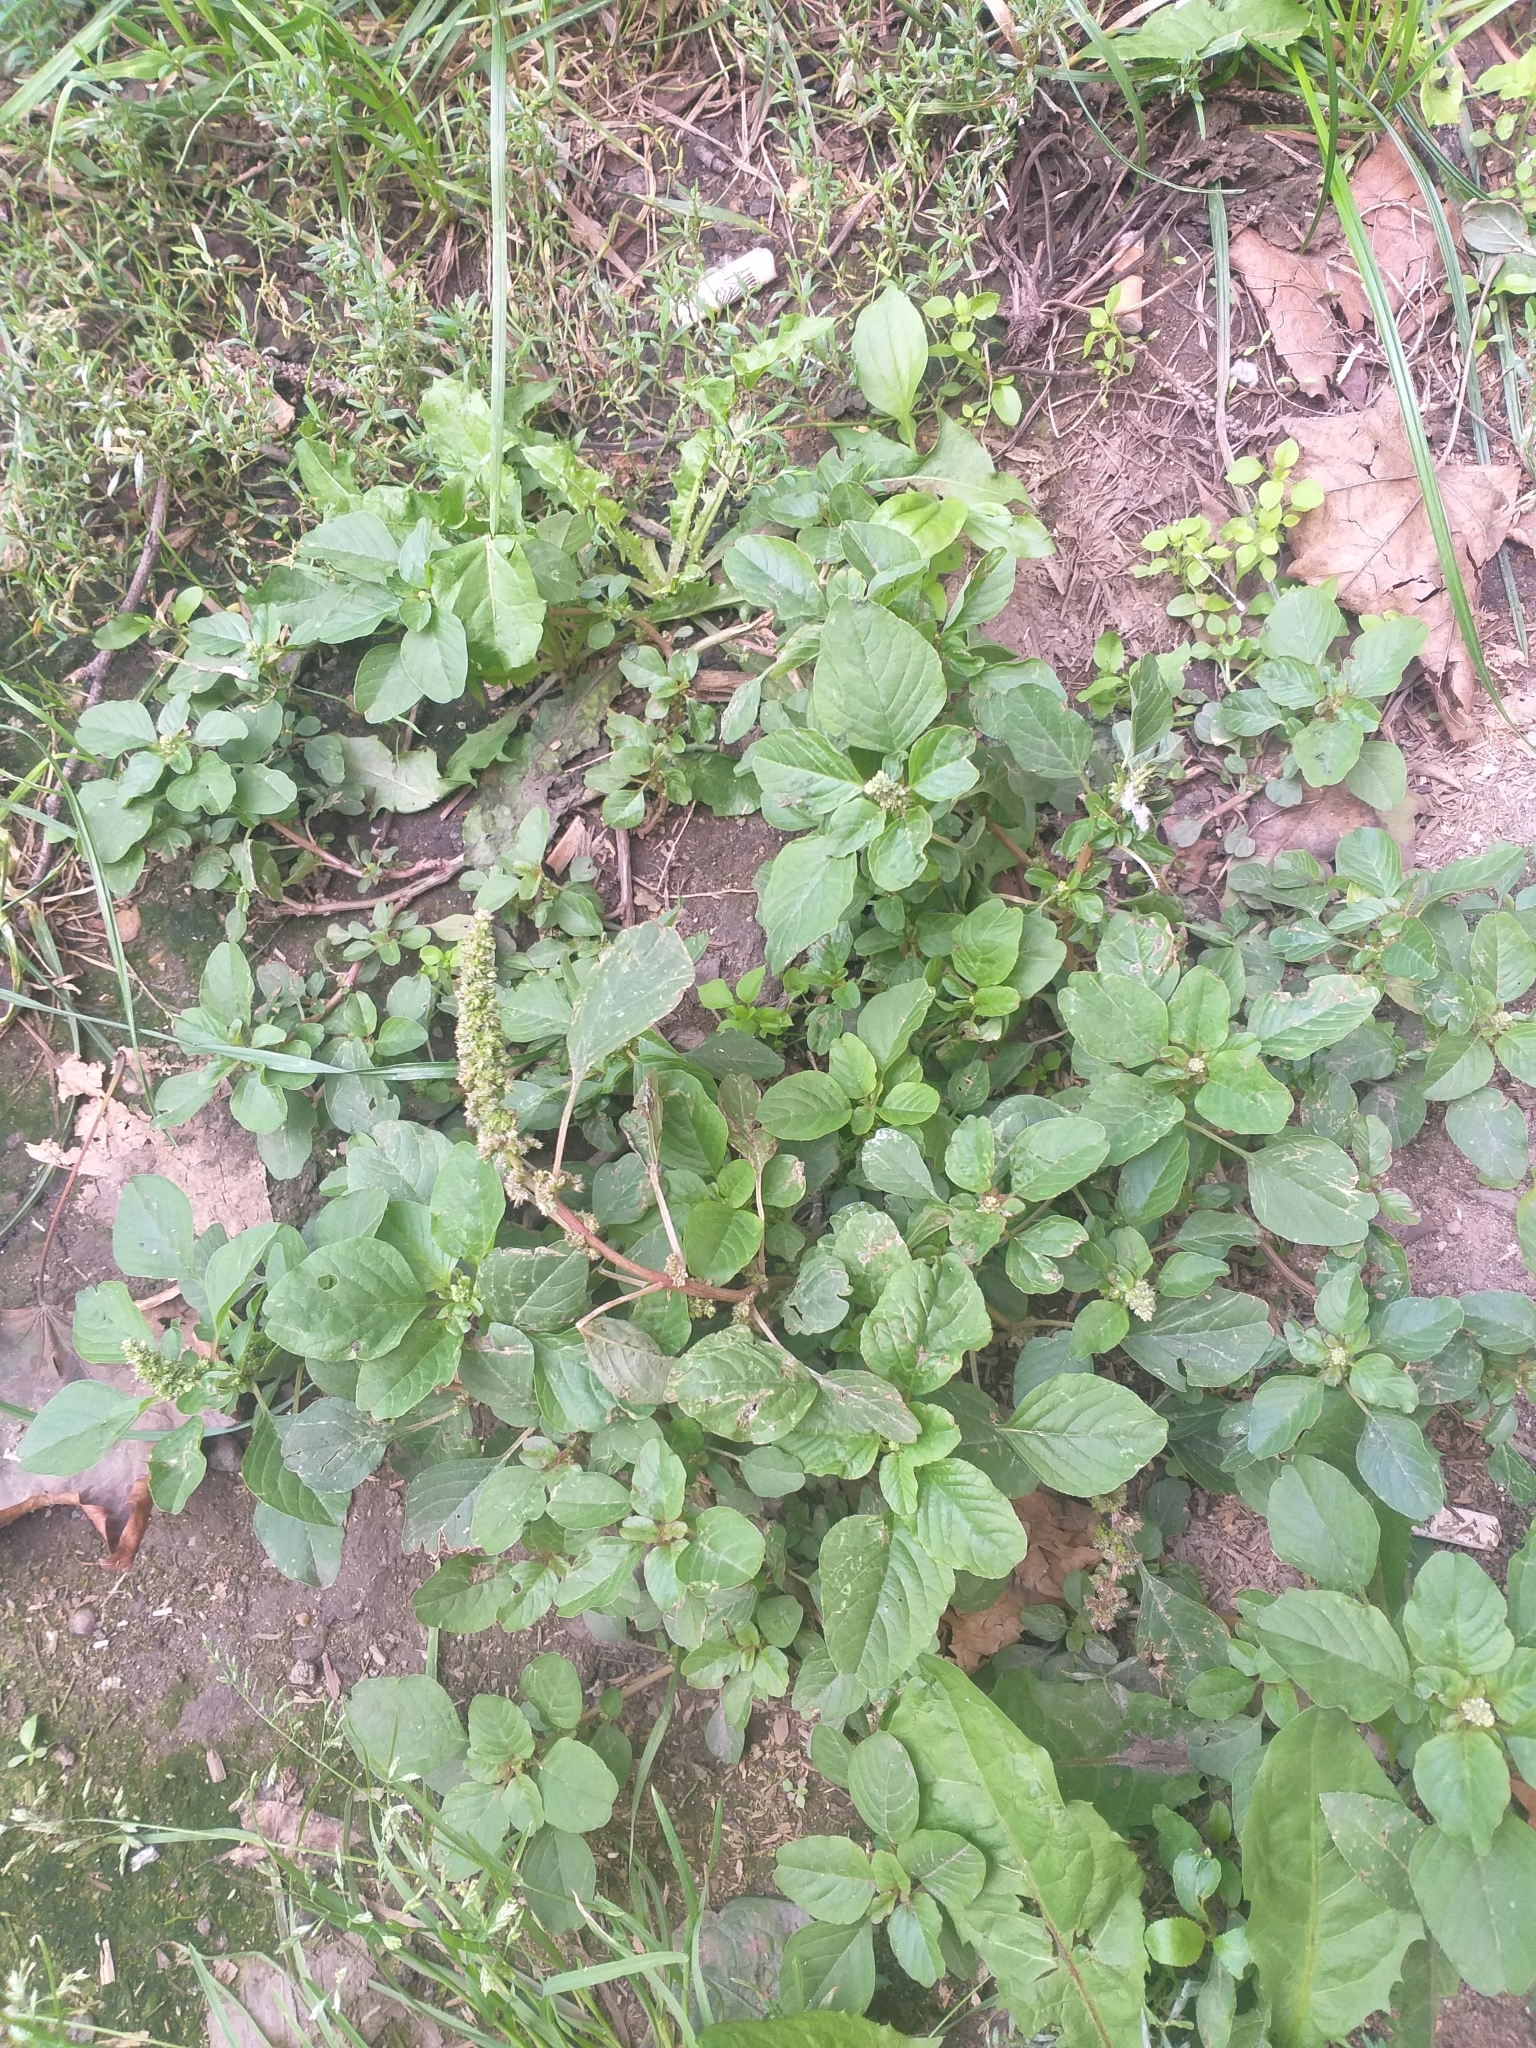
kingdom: Plantae
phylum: Tracheophyta
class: Magnoliopsida
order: Caryophyllales
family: Amaranthaceae
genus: Amaranthus
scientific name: Amaranthus blitum
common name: Purple amaranth
